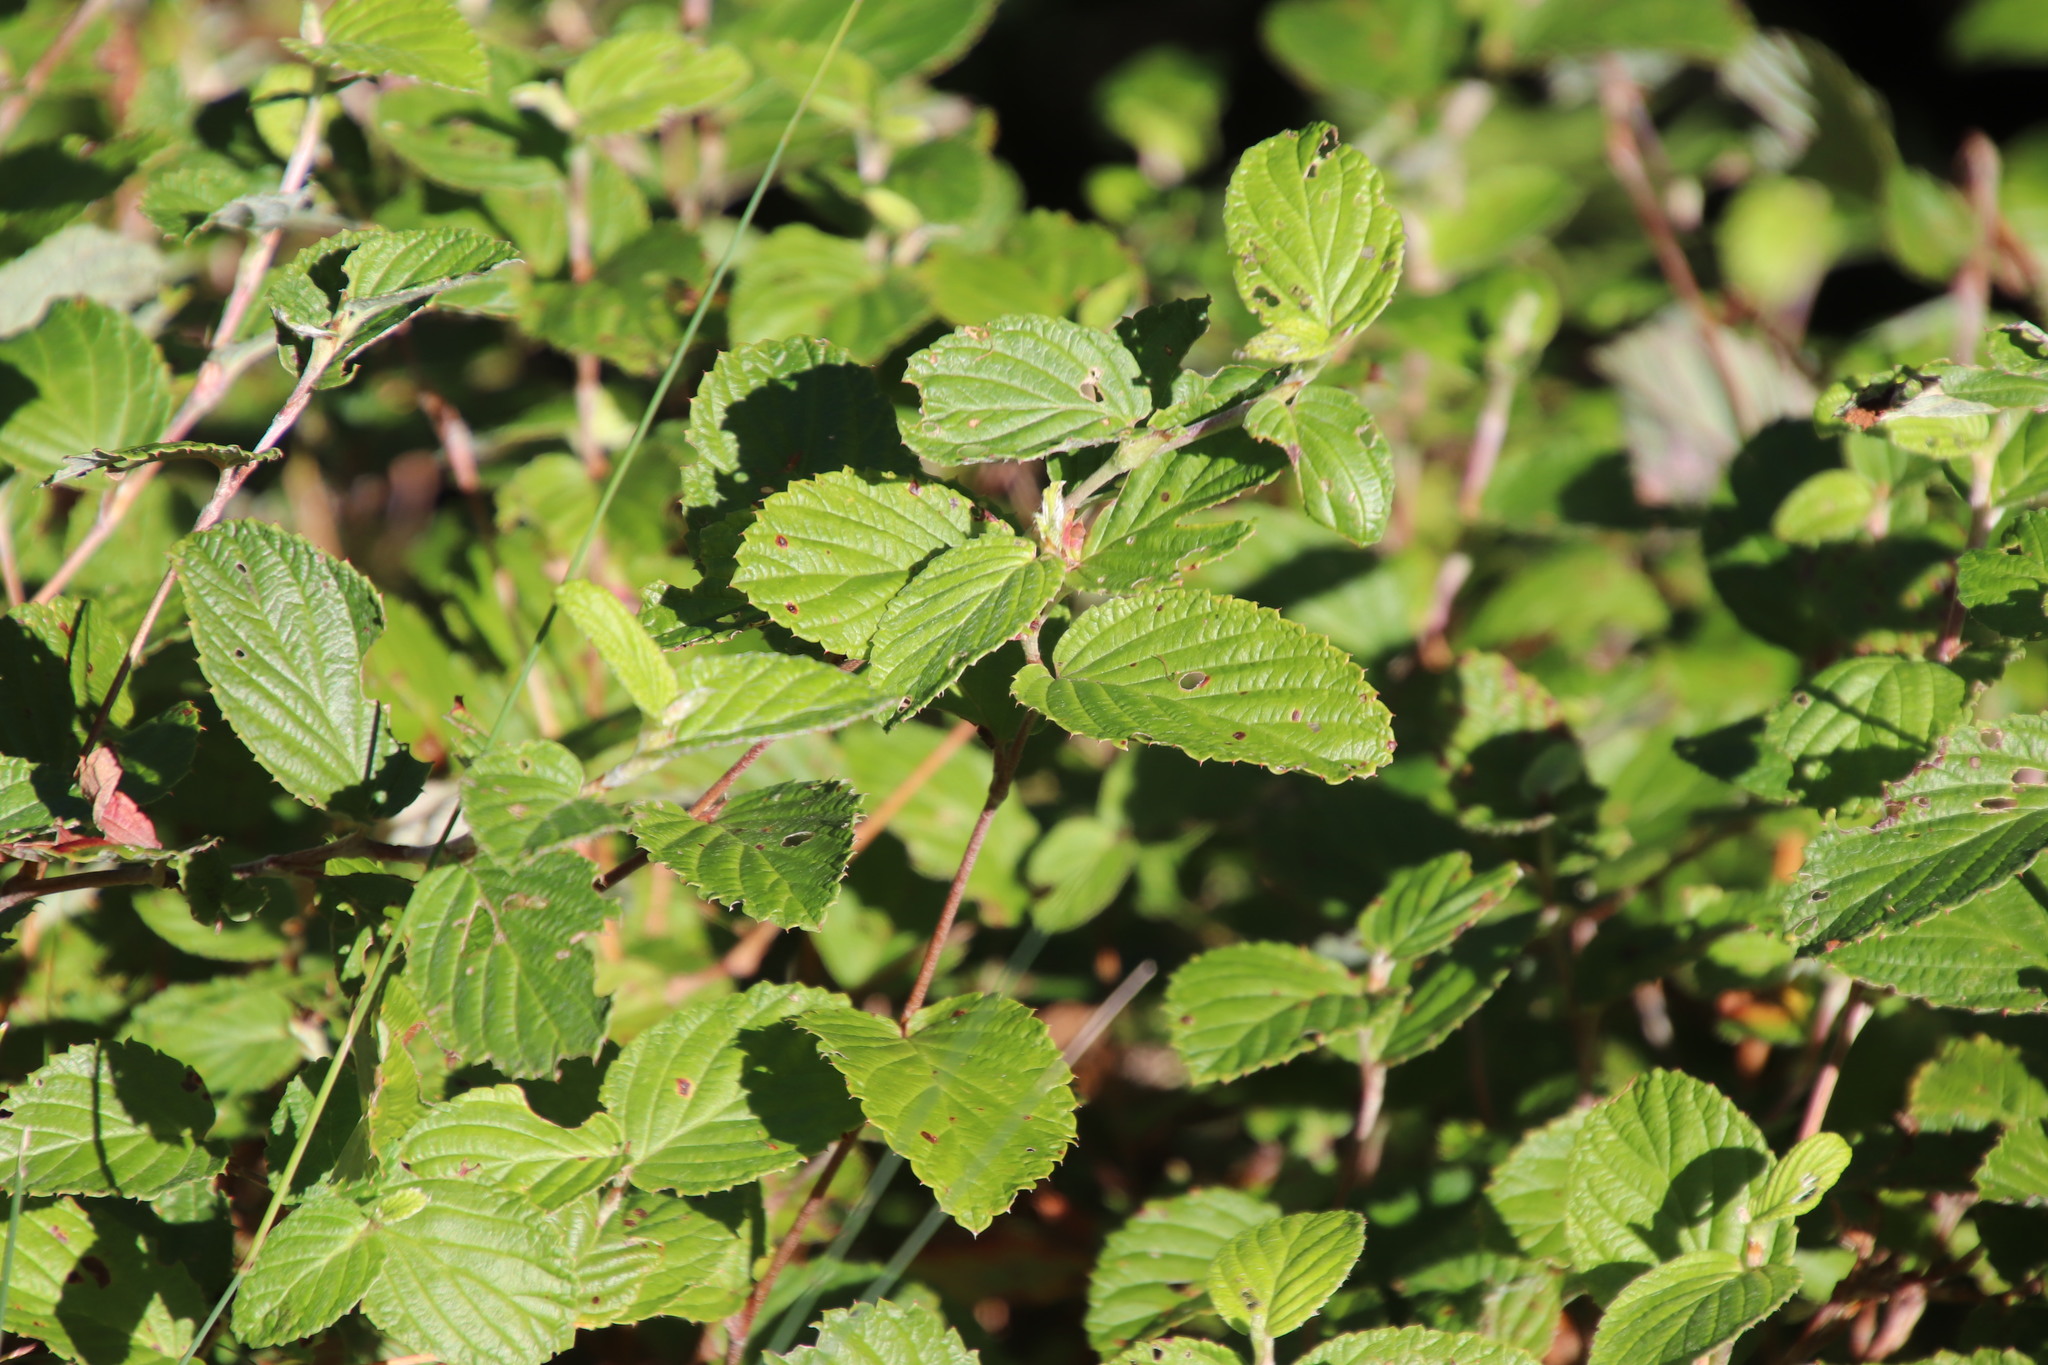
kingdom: Plantae
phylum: Tracheophyta
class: Magnoliopsida
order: Rosales
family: Rosaceae
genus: Cliffortia
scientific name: Cliffortia odorata
